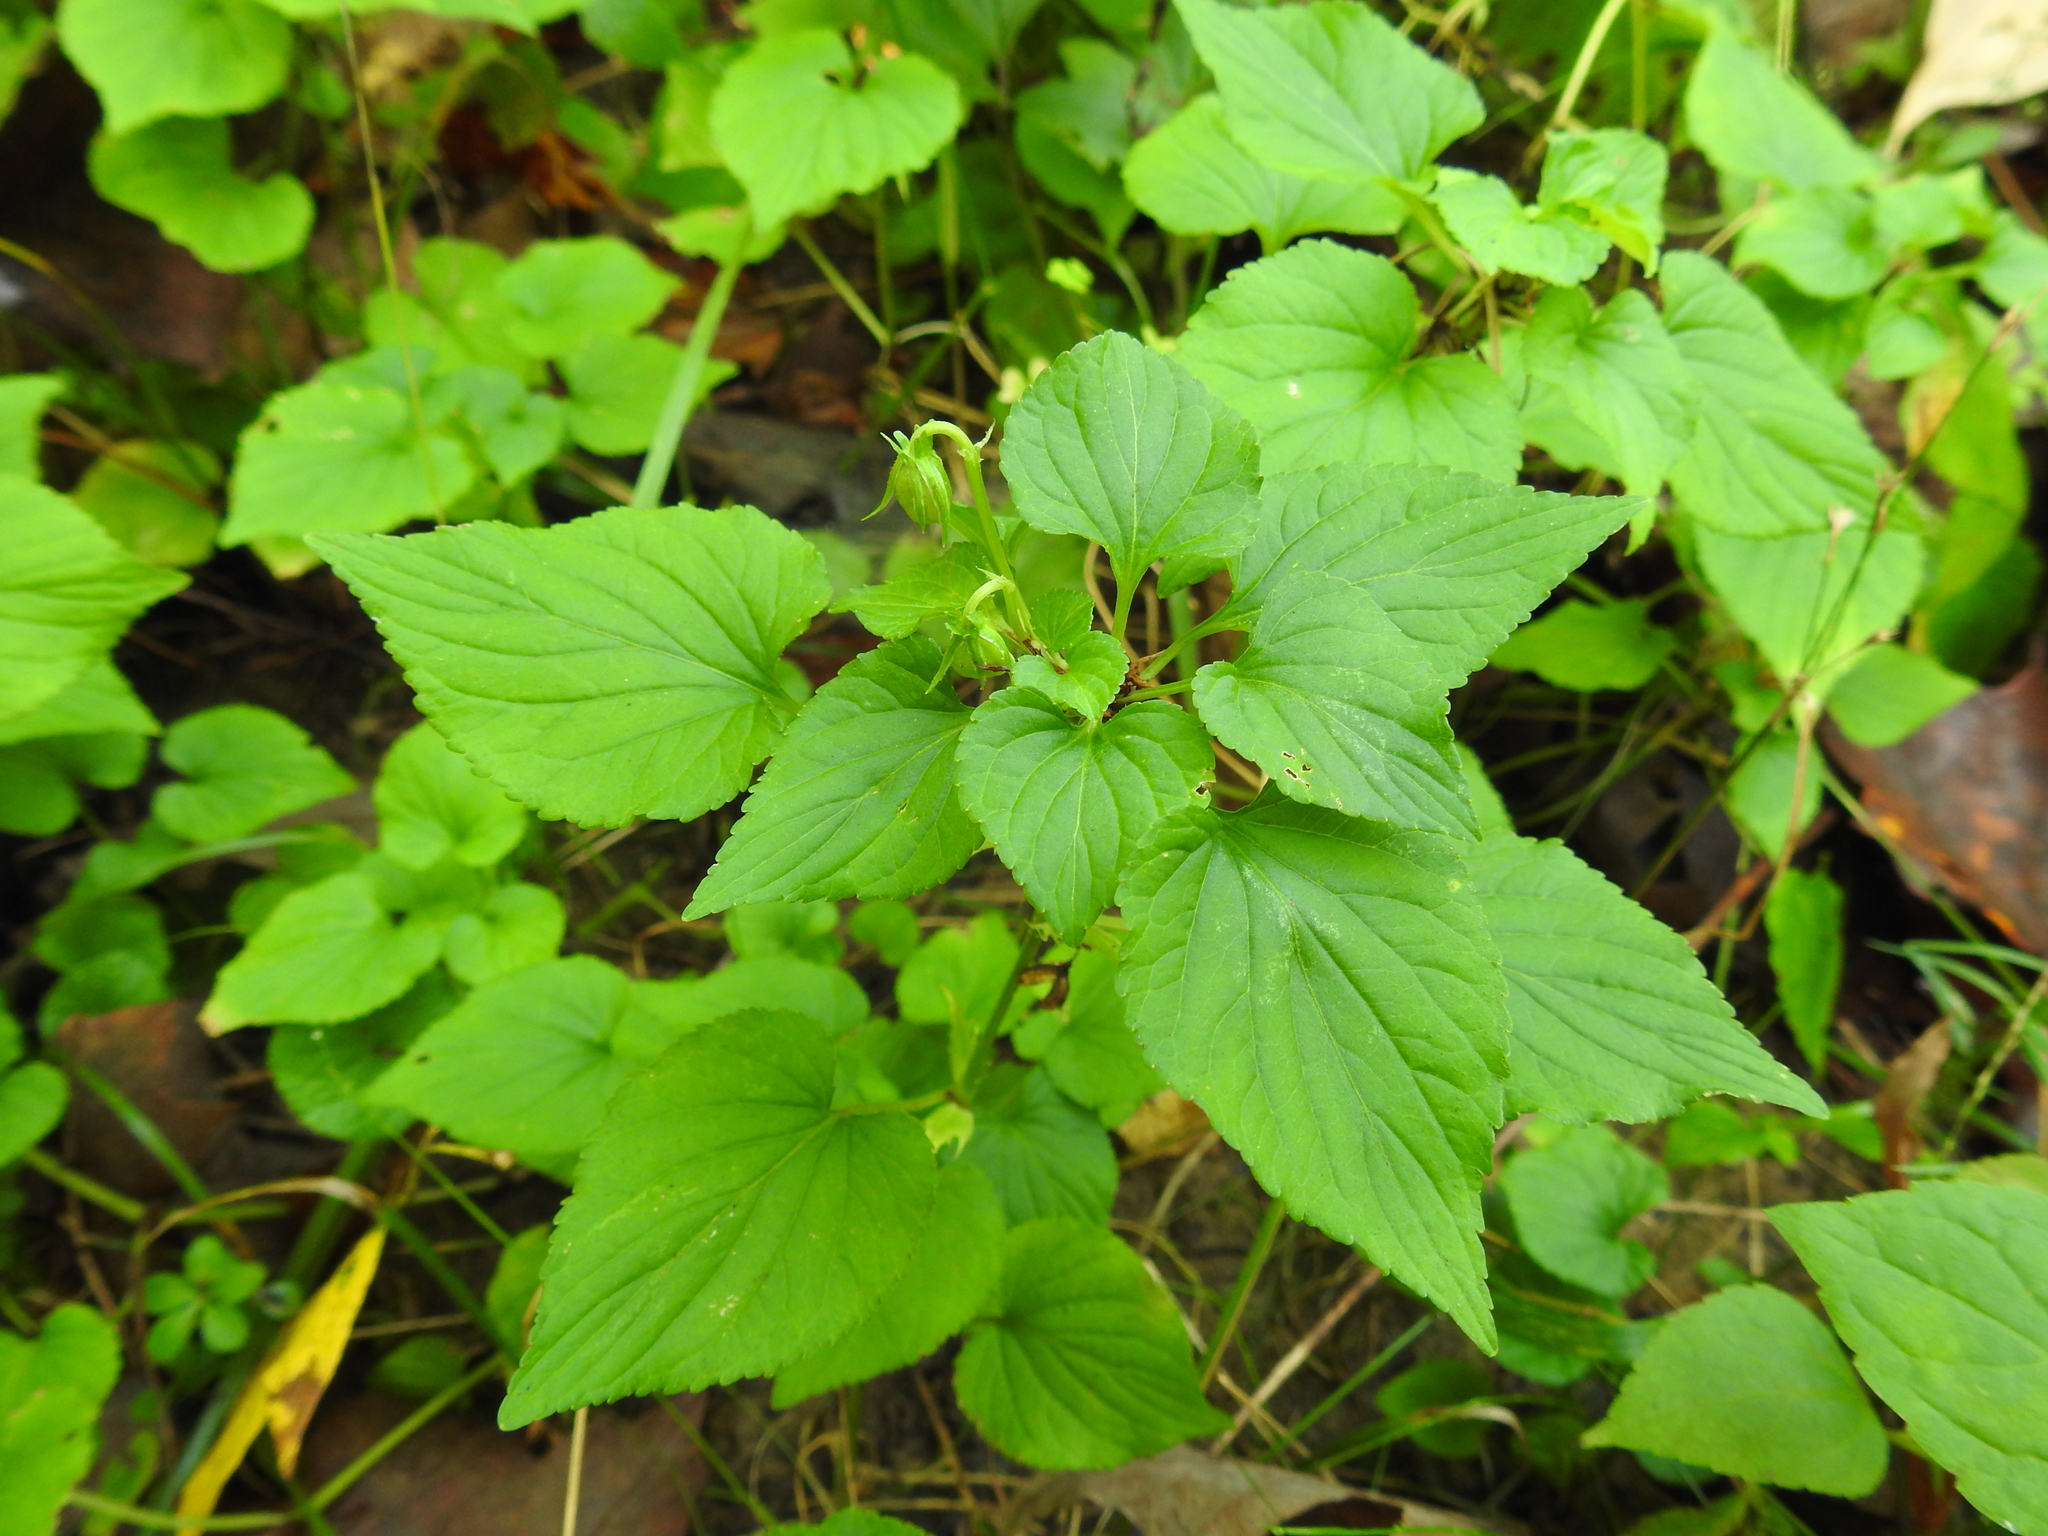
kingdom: Plantae
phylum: Tracheophyta
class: Magnoliopsida
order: Malpighiales
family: Violaceae
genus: Viola
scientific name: Viola canadensis
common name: Canada violet
